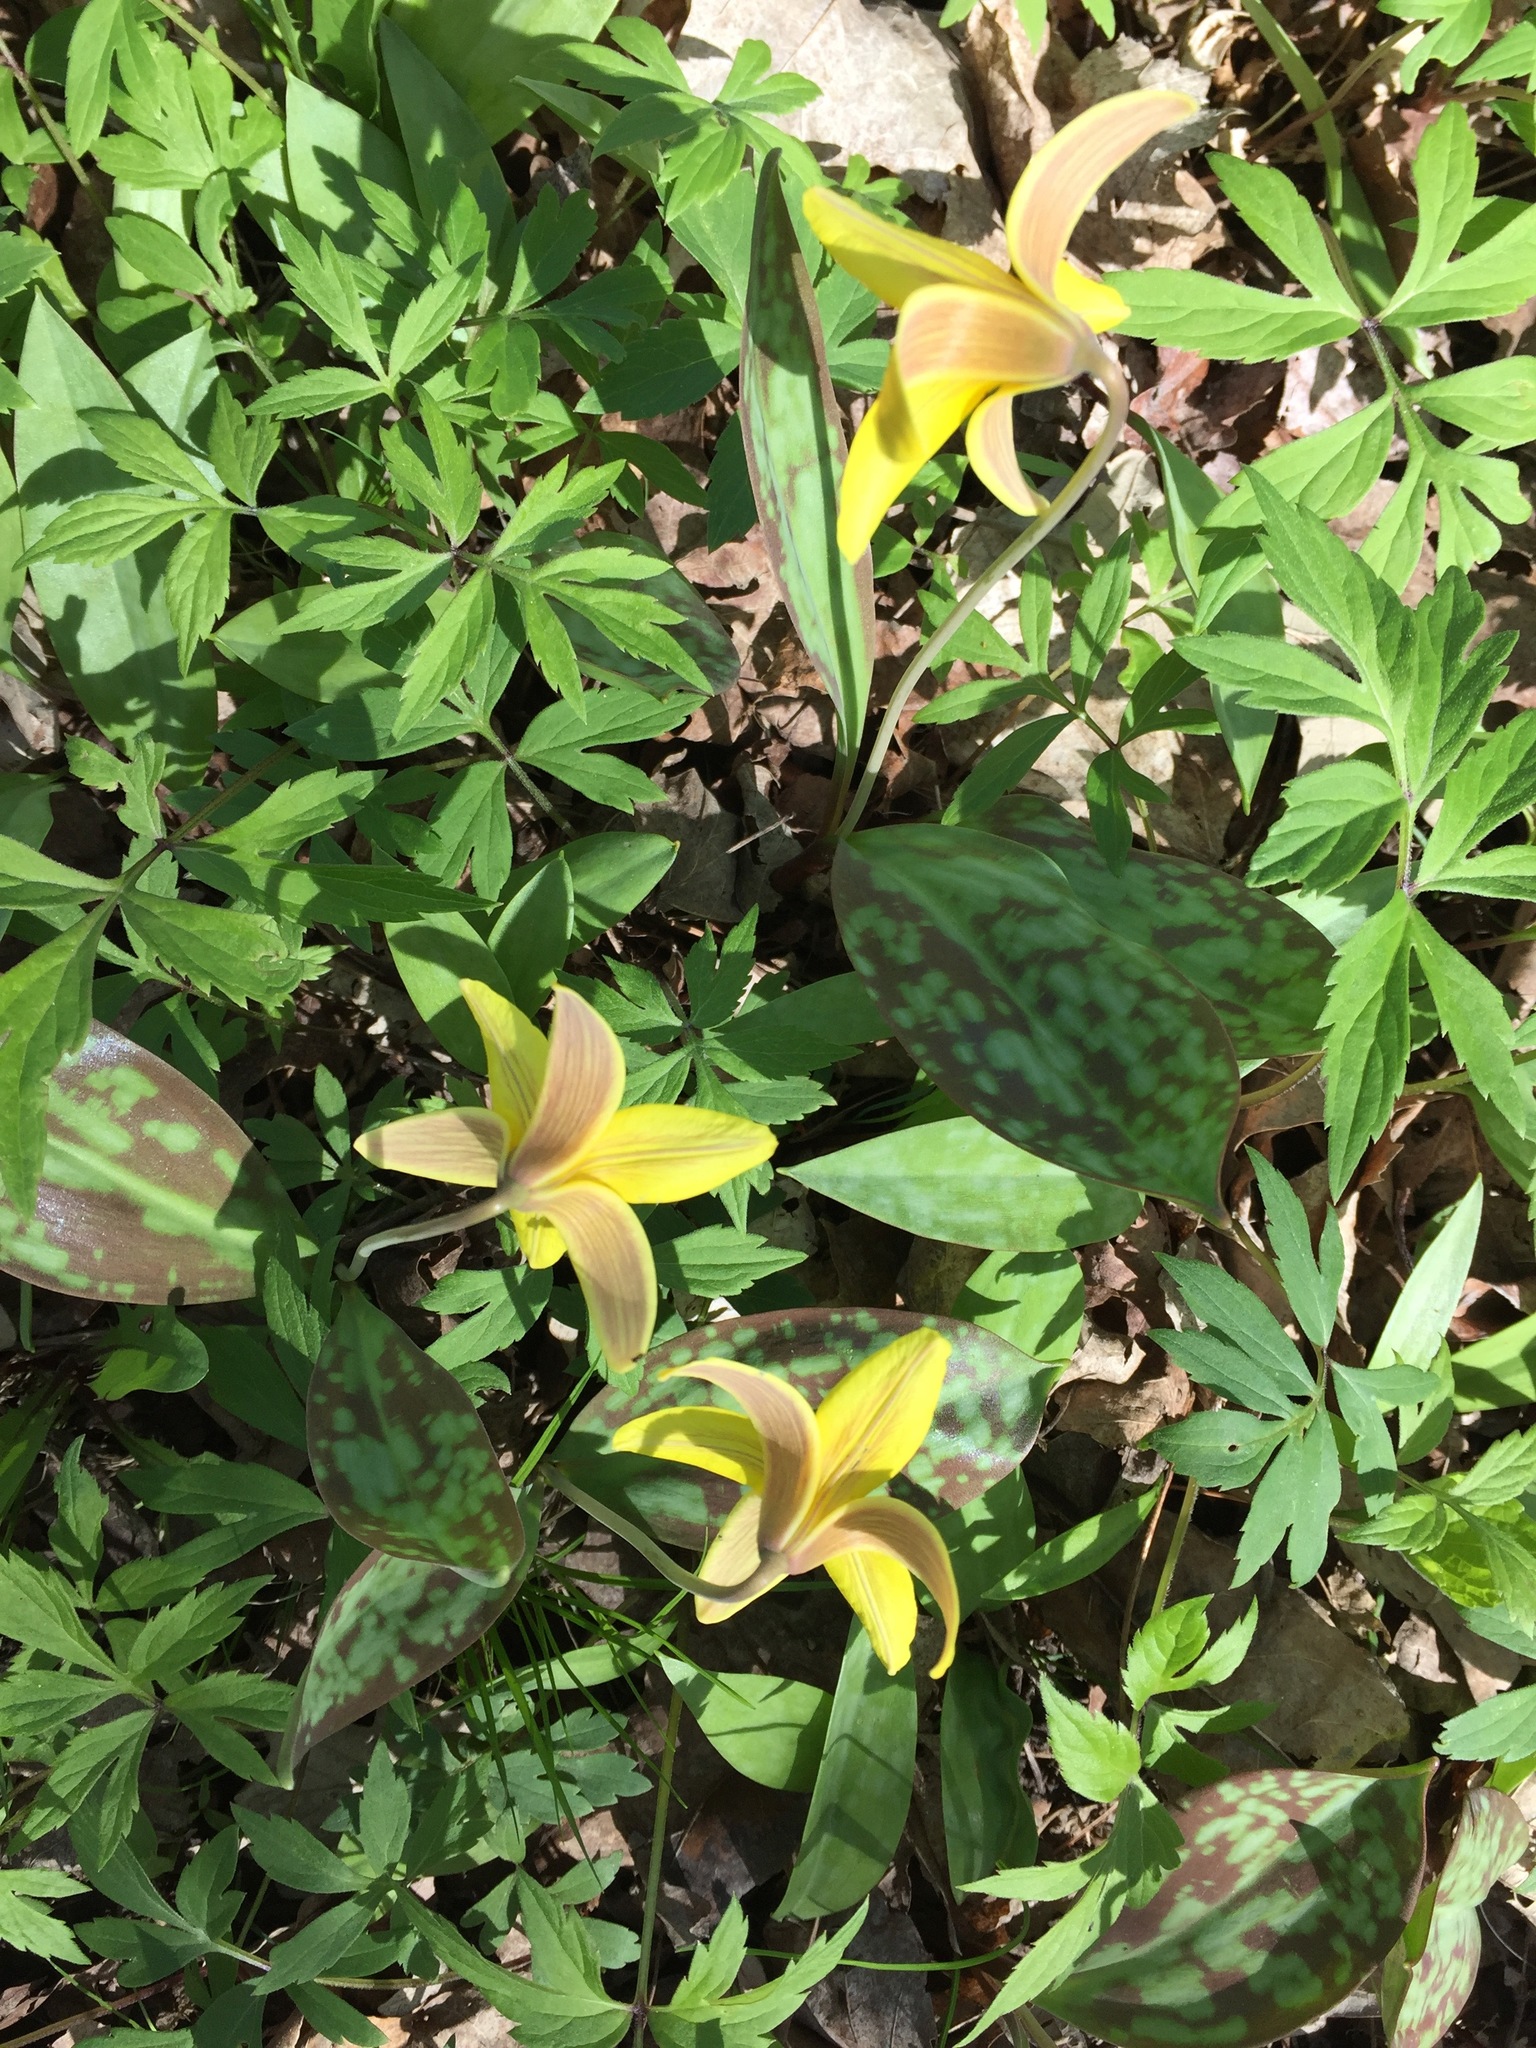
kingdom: Plantae
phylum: Tracheophyta
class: Liliopsida
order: Liliales
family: Liliaceae
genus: Erythronium
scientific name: Erythronium americanum
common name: Yellow adder's-tongue
